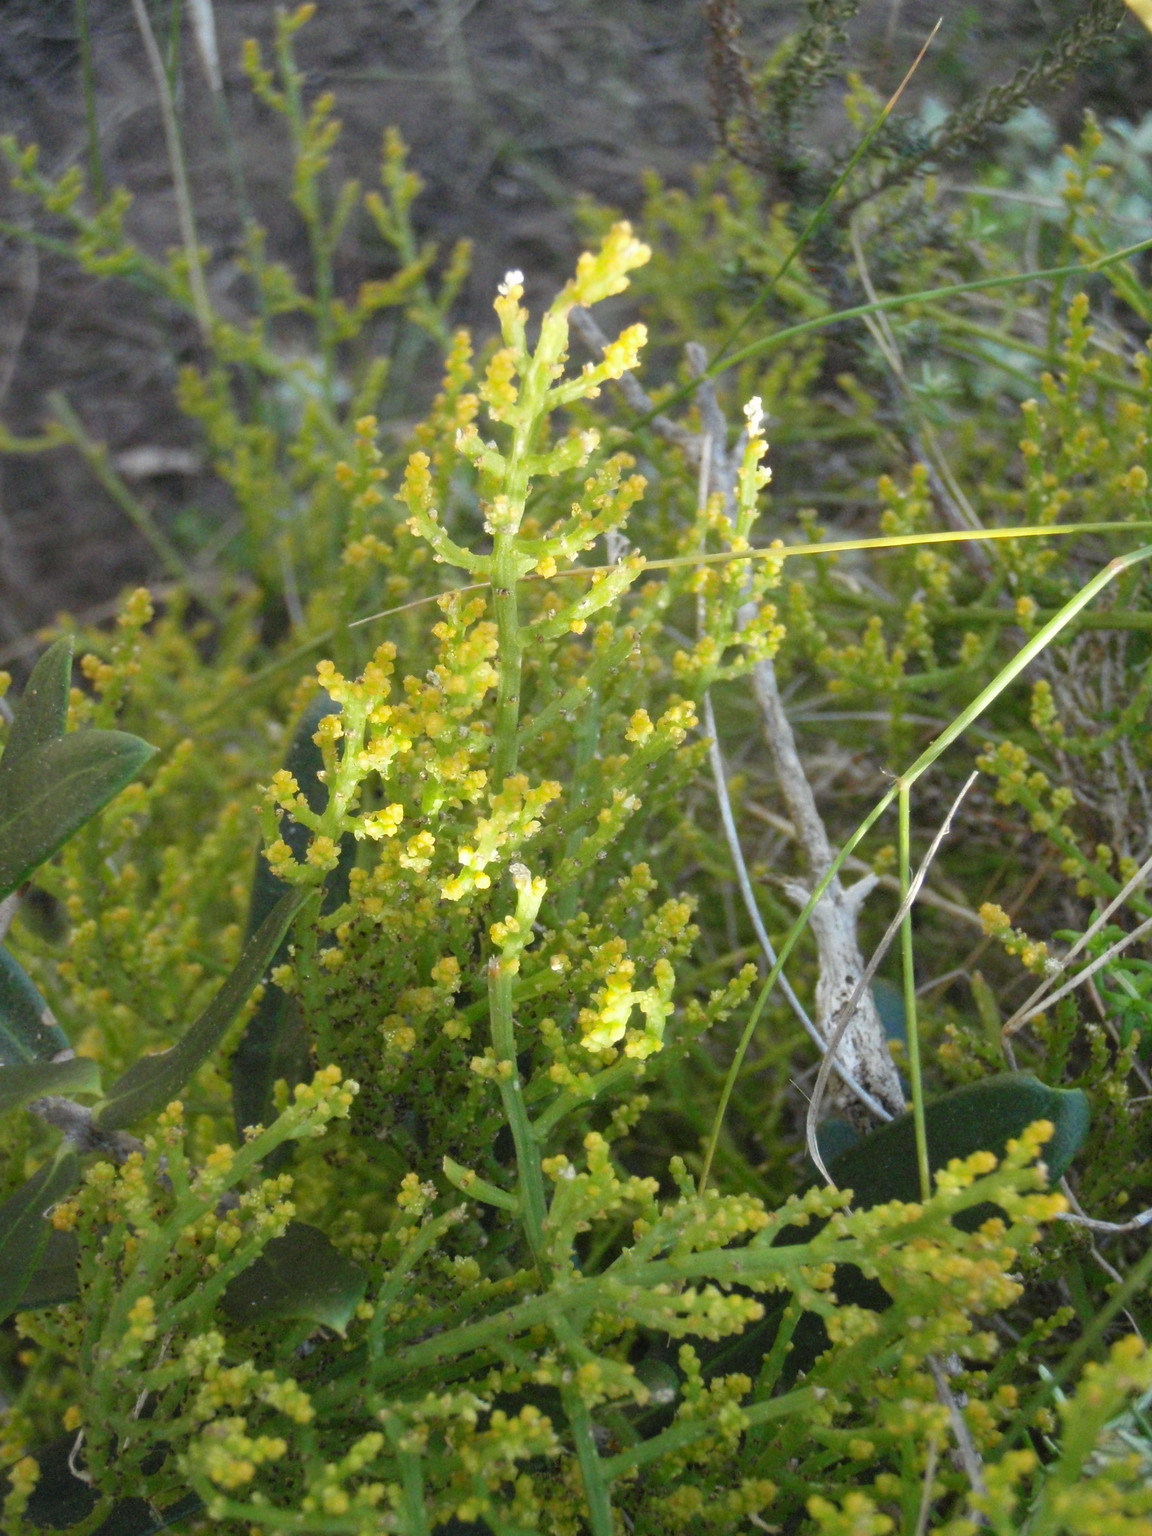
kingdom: Plantae
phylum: Tracheophyta
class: Magnoliopsida
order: Santalales
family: Thesiaceae
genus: Thesium
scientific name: Thesium fragile
